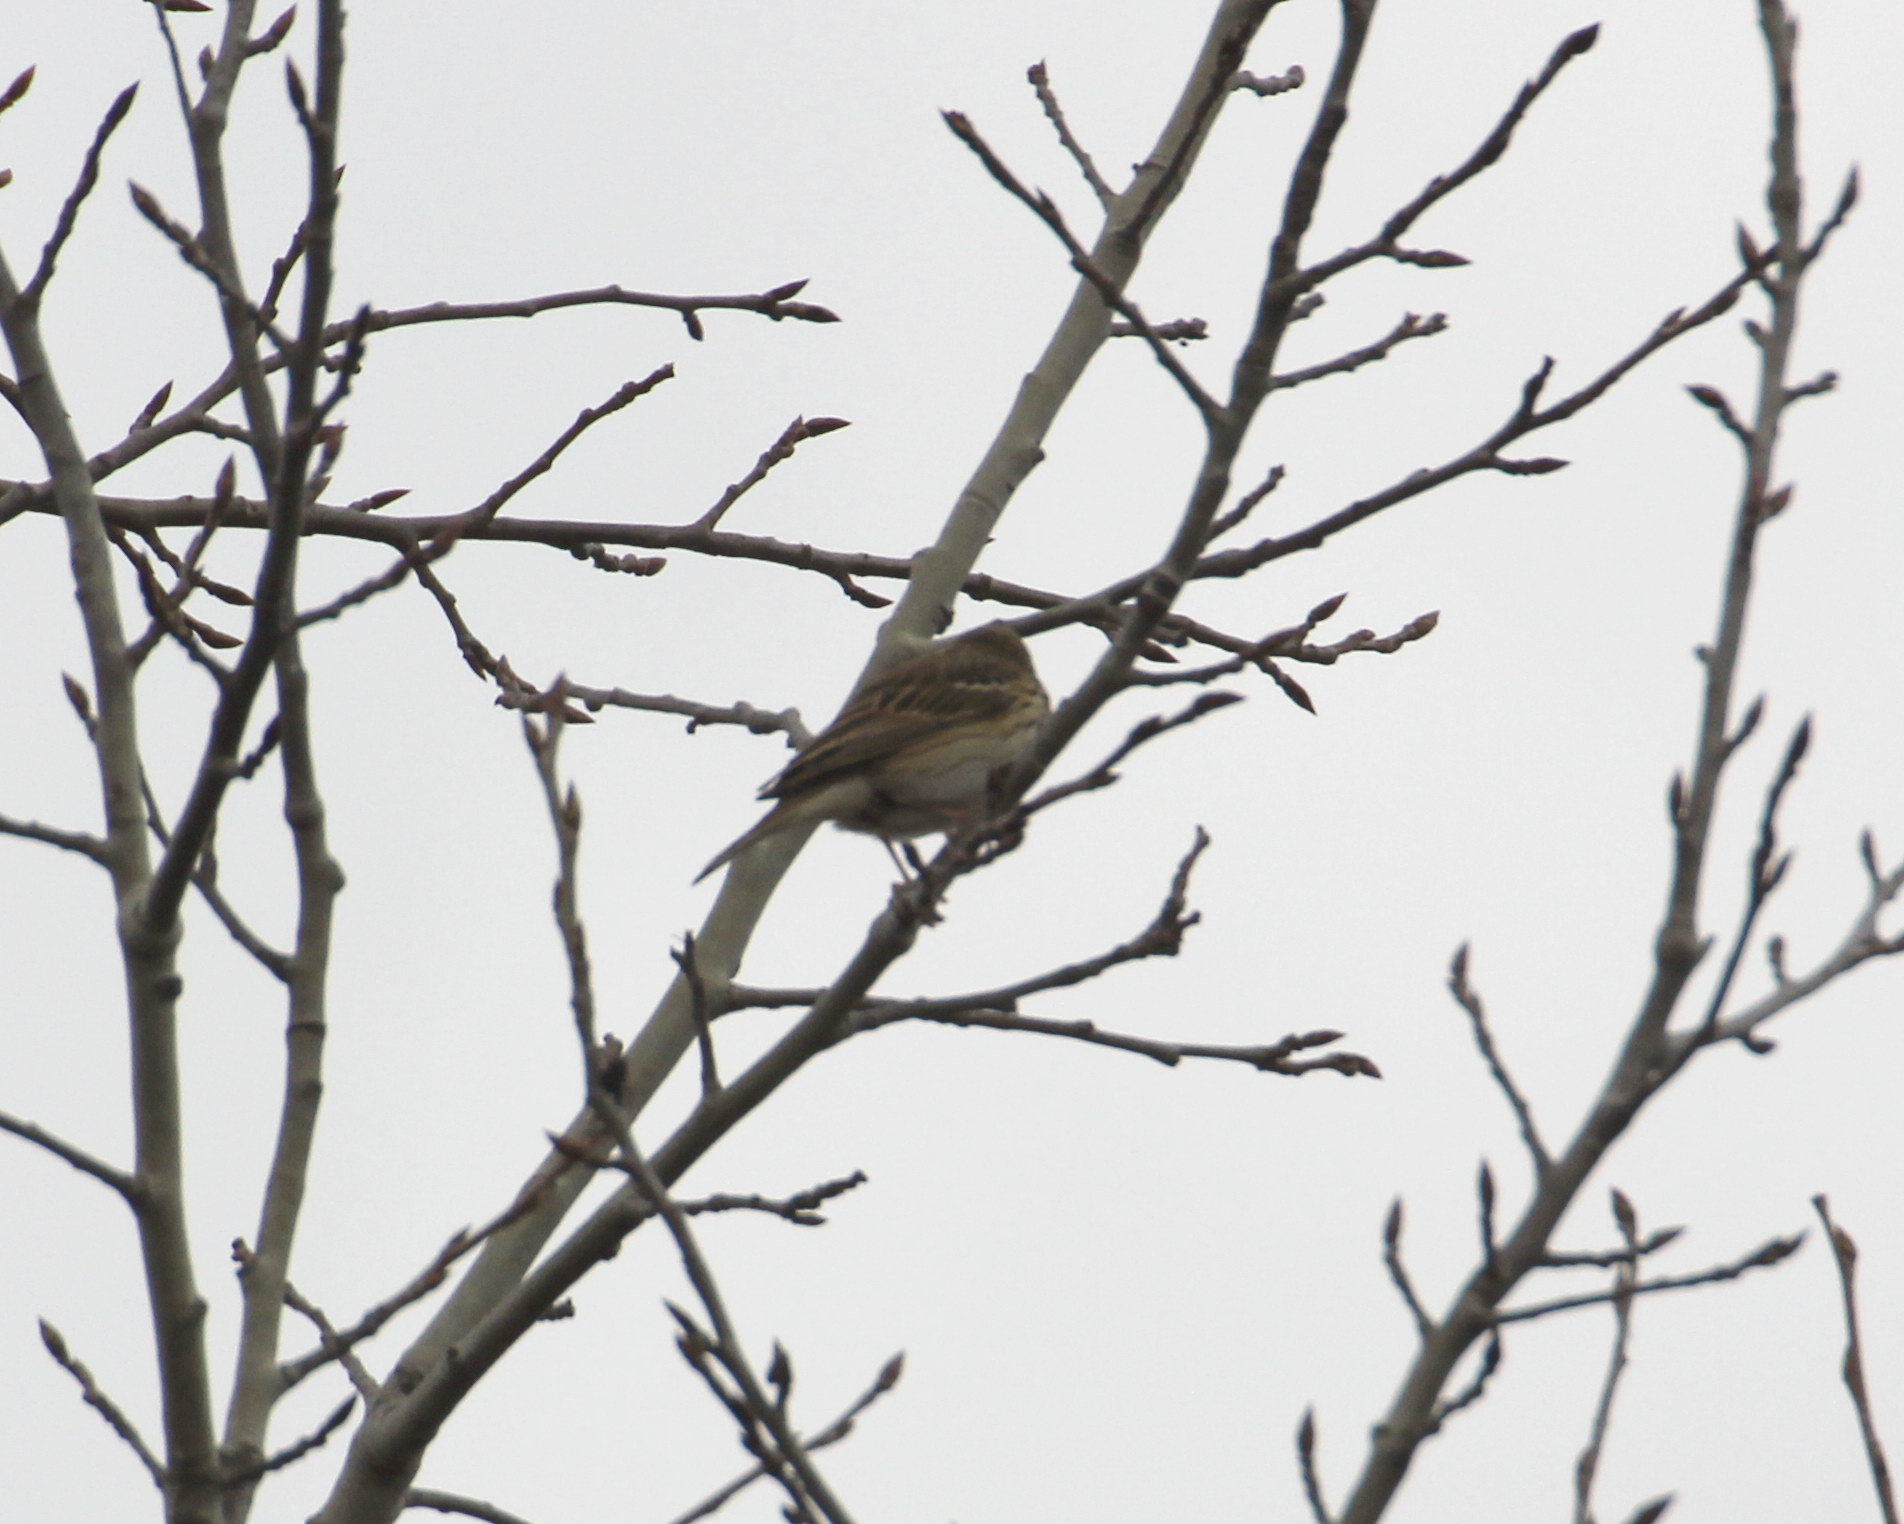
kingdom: Animalia
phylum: Chordata
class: Aves
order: Passeriformes
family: Motacillidae
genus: Anthus
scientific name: Anthus trivialis
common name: Tree pipit
